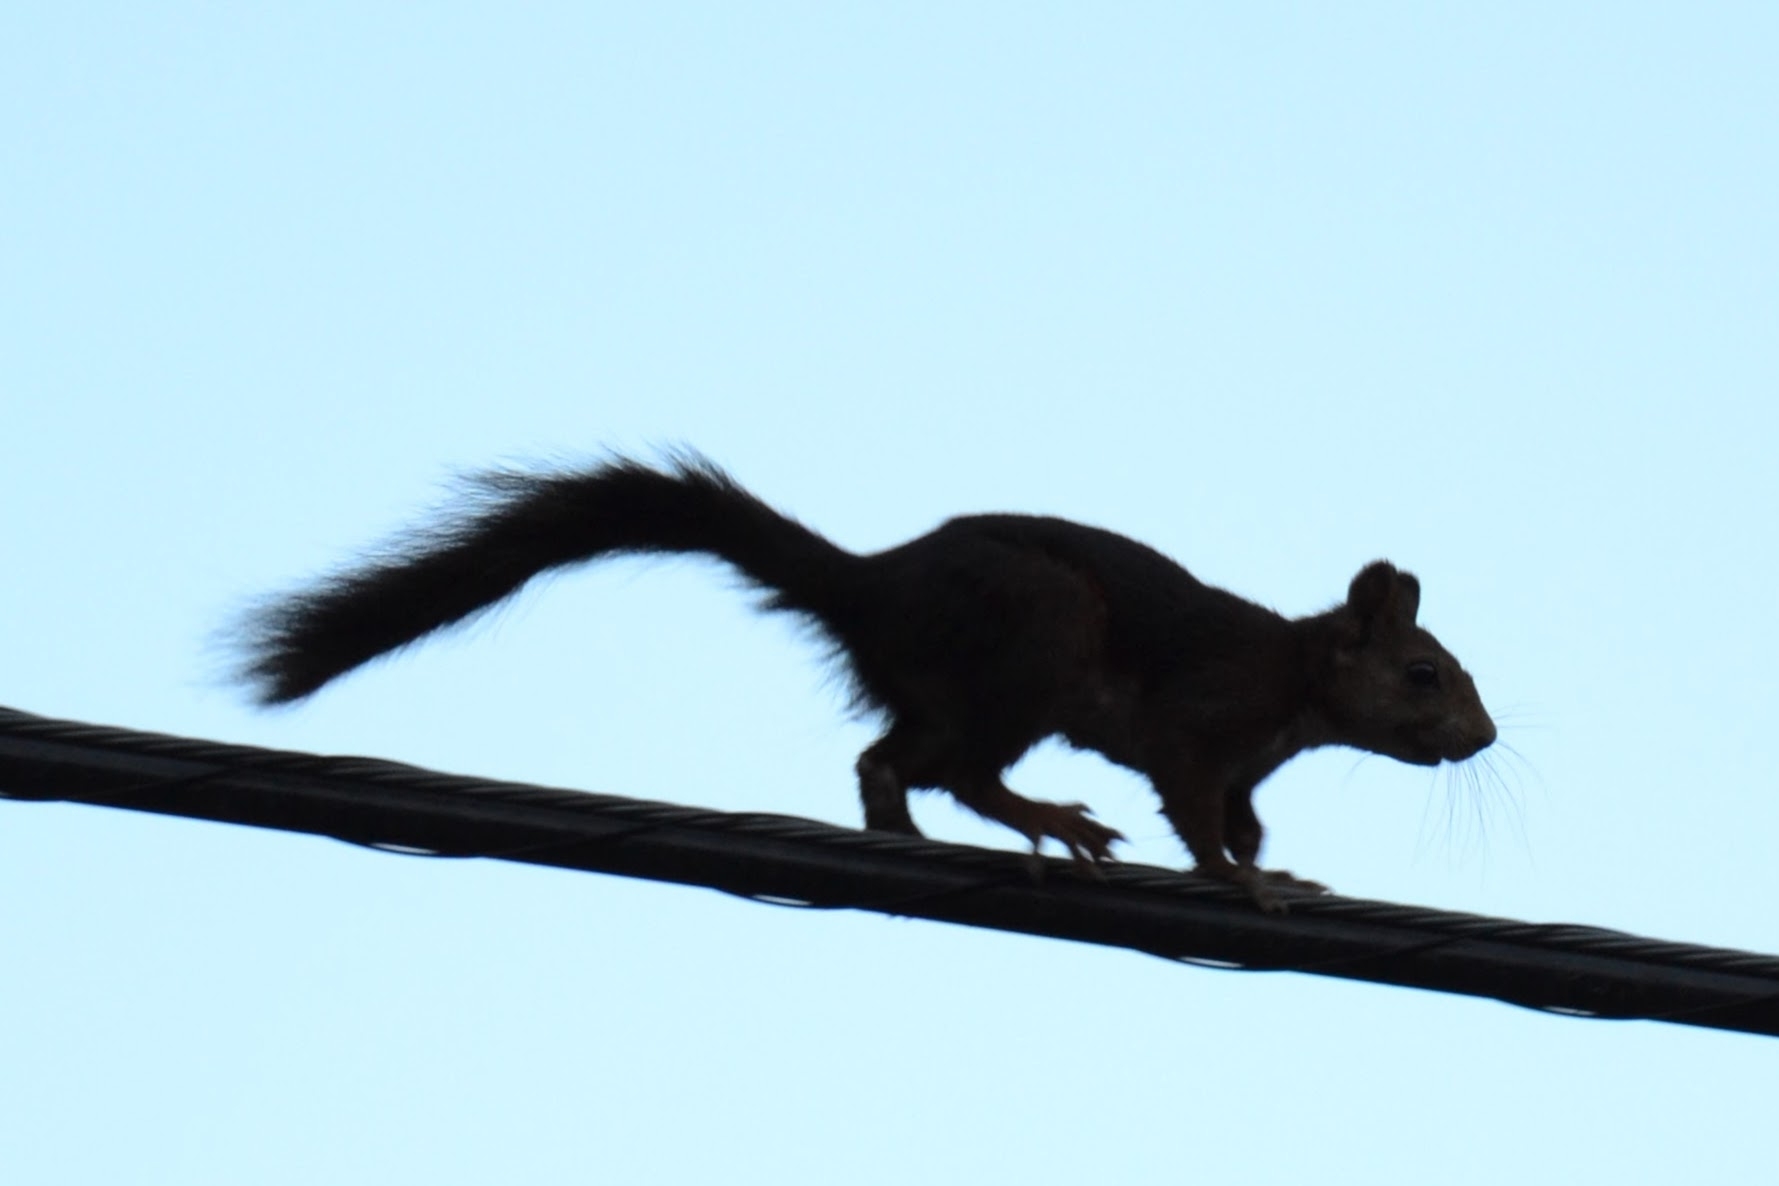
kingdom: Animalia
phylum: Chordata
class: Mammalia
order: Rodentia
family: Sciuridae
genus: Sciurus
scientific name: Sciurus vulgaris
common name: Eurasian red squirrel
